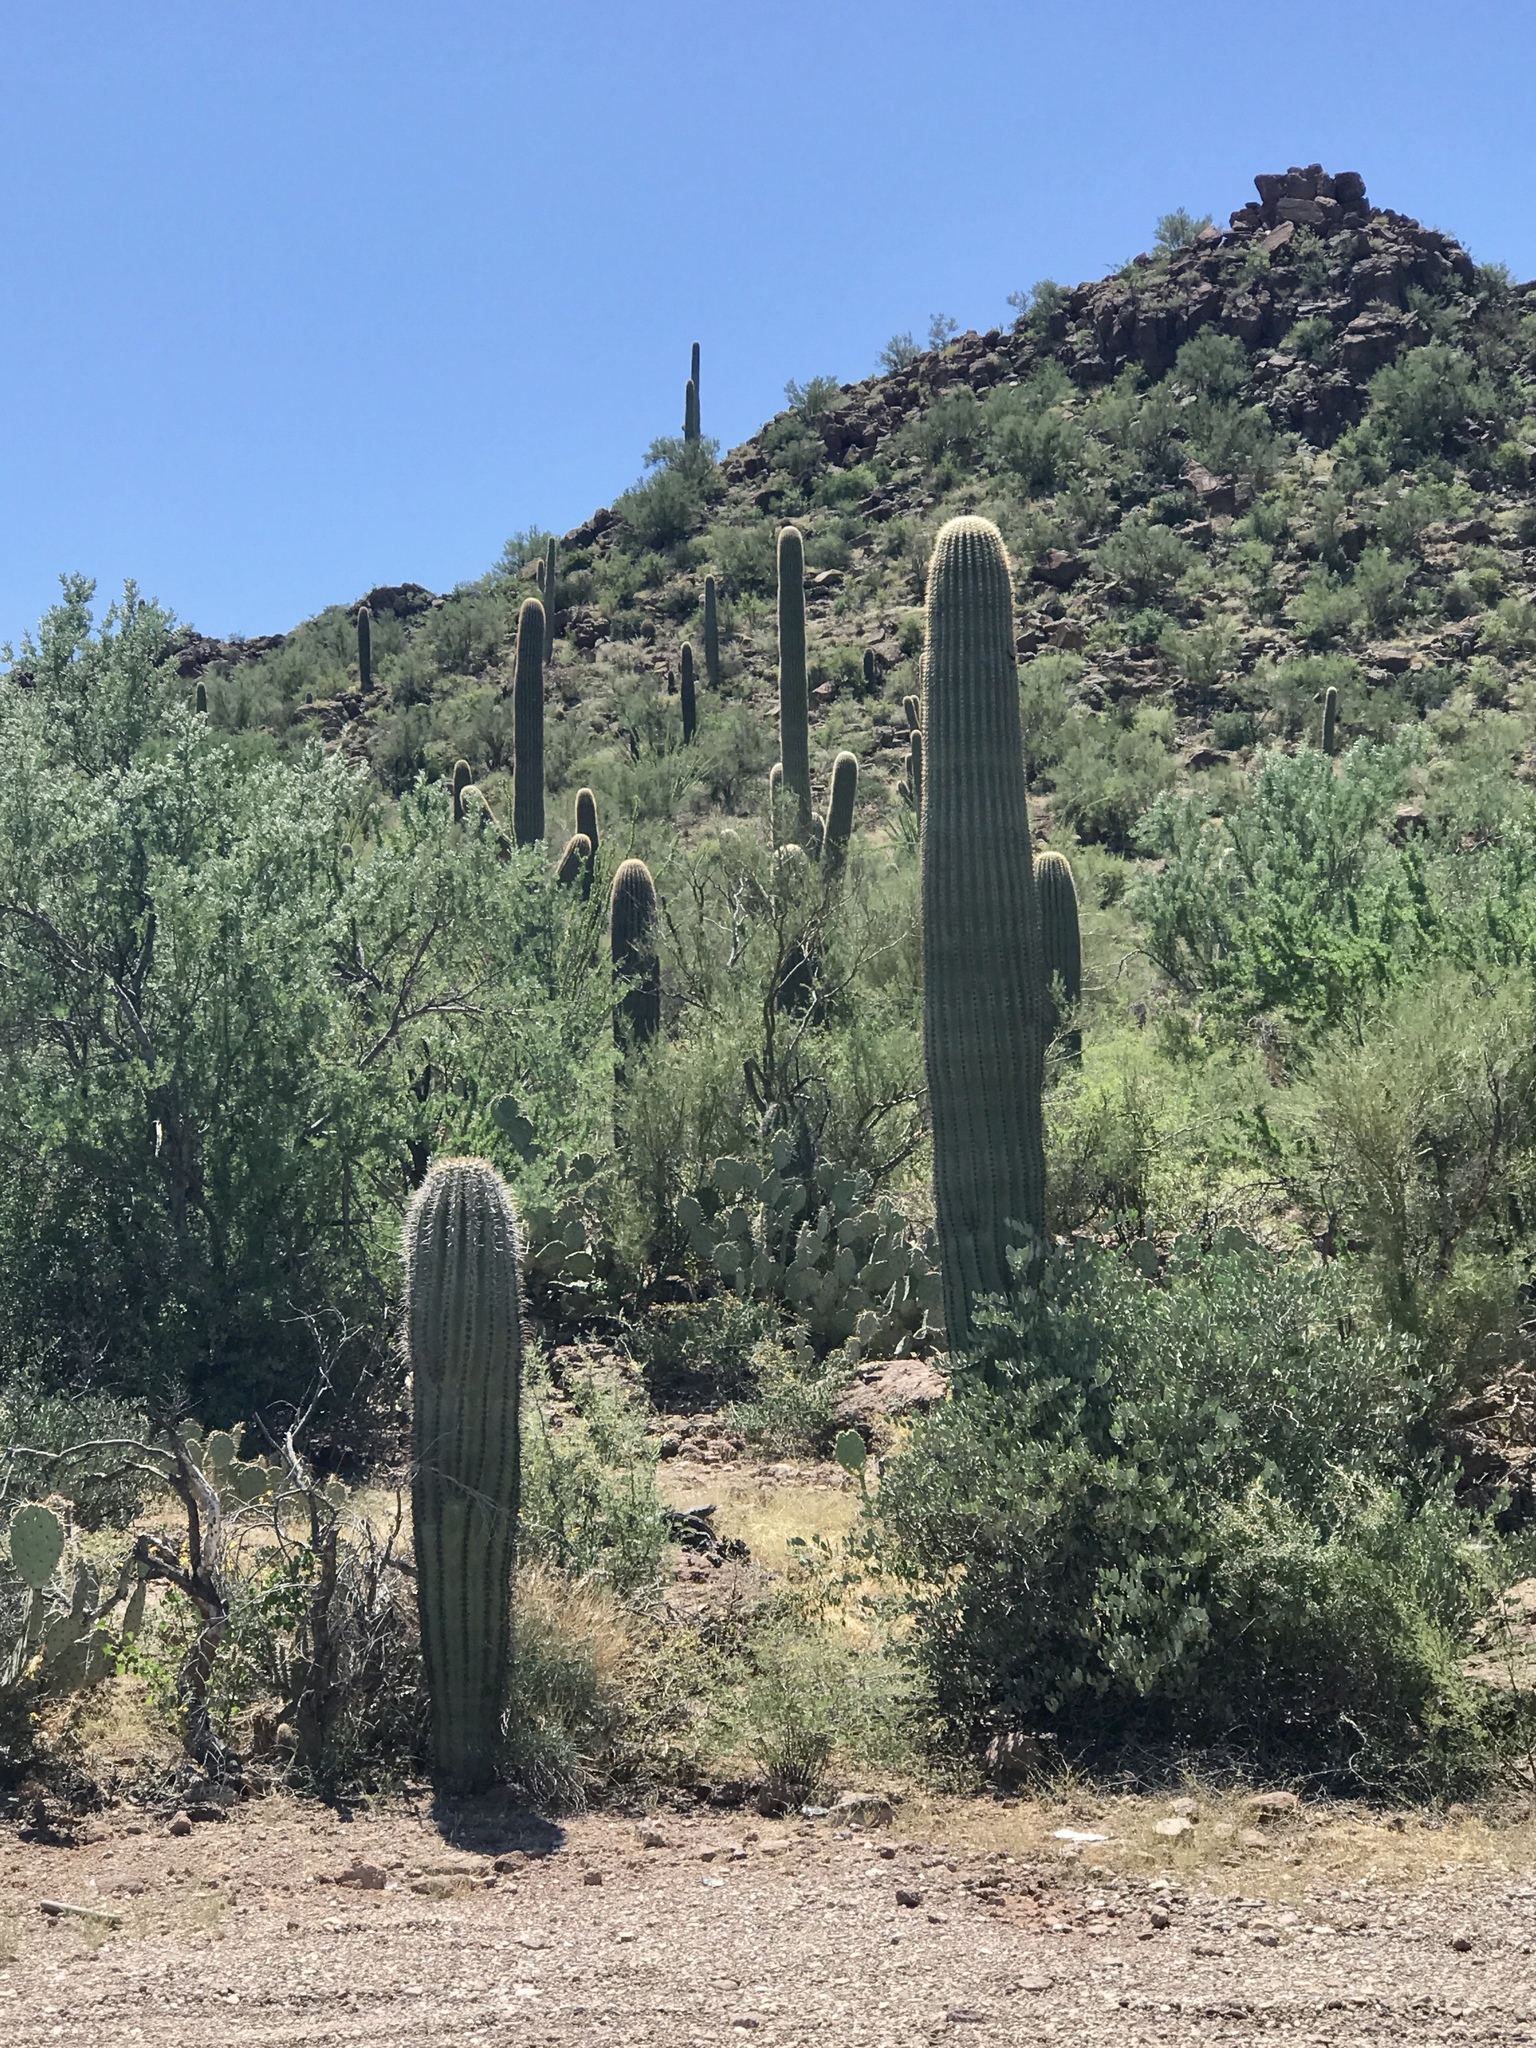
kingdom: Plantae
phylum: Tracheophyta
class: Magnoliopsida
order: Caryophyllales
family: Cactaceae
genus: Carnegiea
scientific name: Carnegiea gigantea
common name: Saguaro
